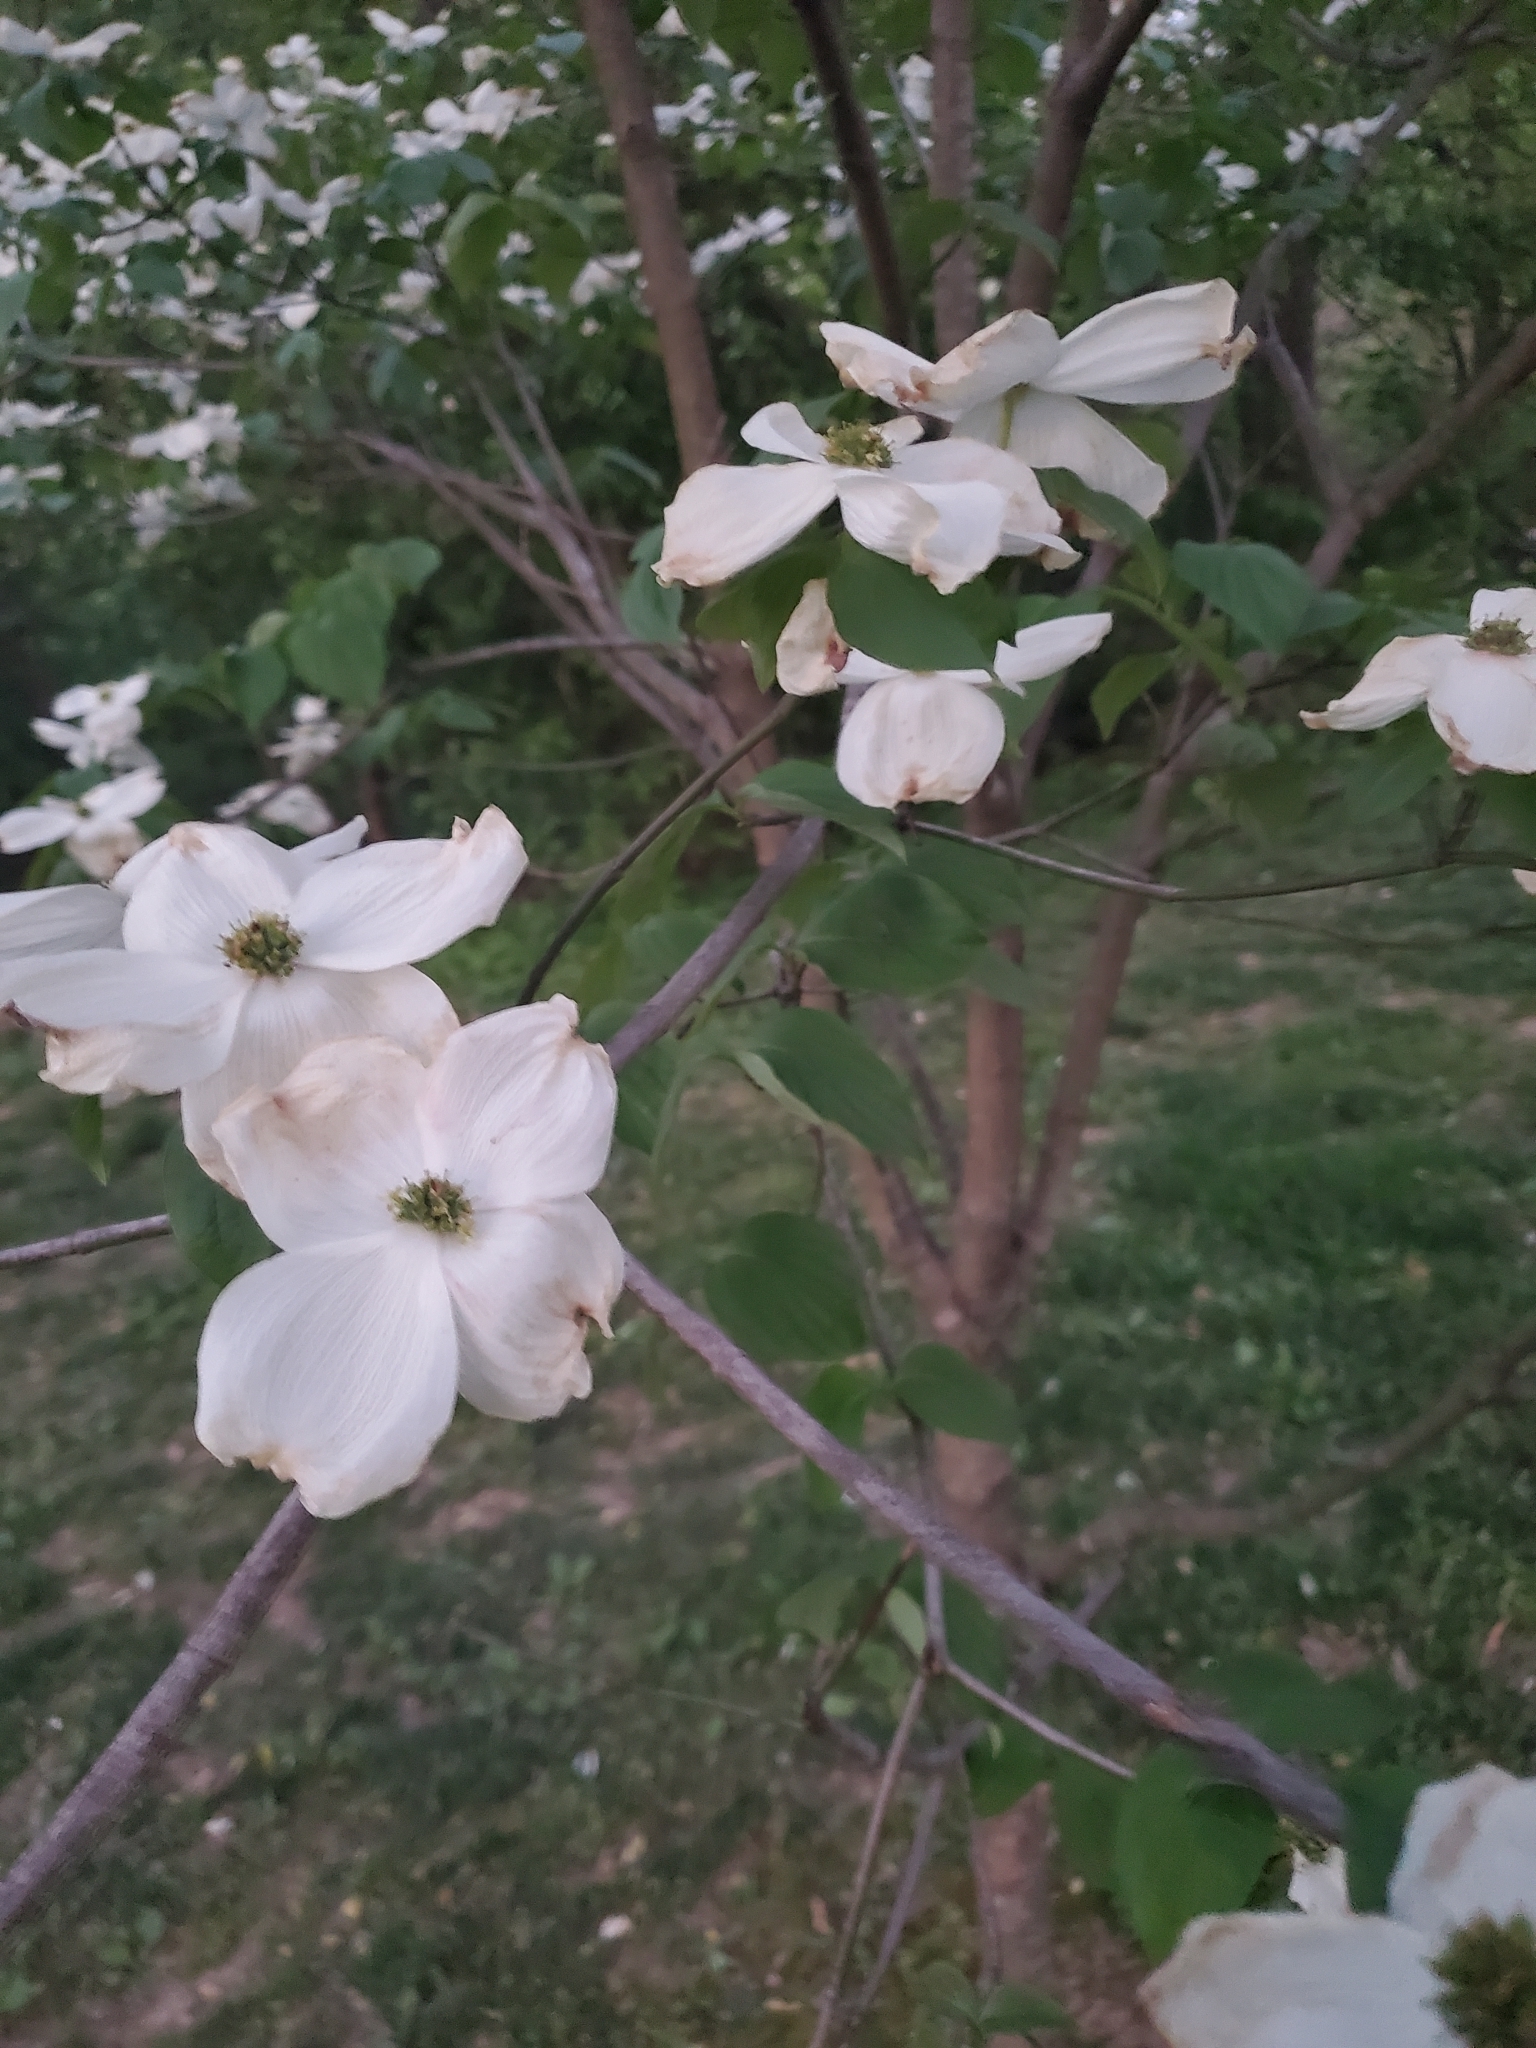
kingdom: Plantae
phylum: Tracheophyta
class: Magnoliopsida
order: Cornales
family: Cornaceae
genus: Cornus
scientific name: Cornus florida
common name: Flowering dogwood
